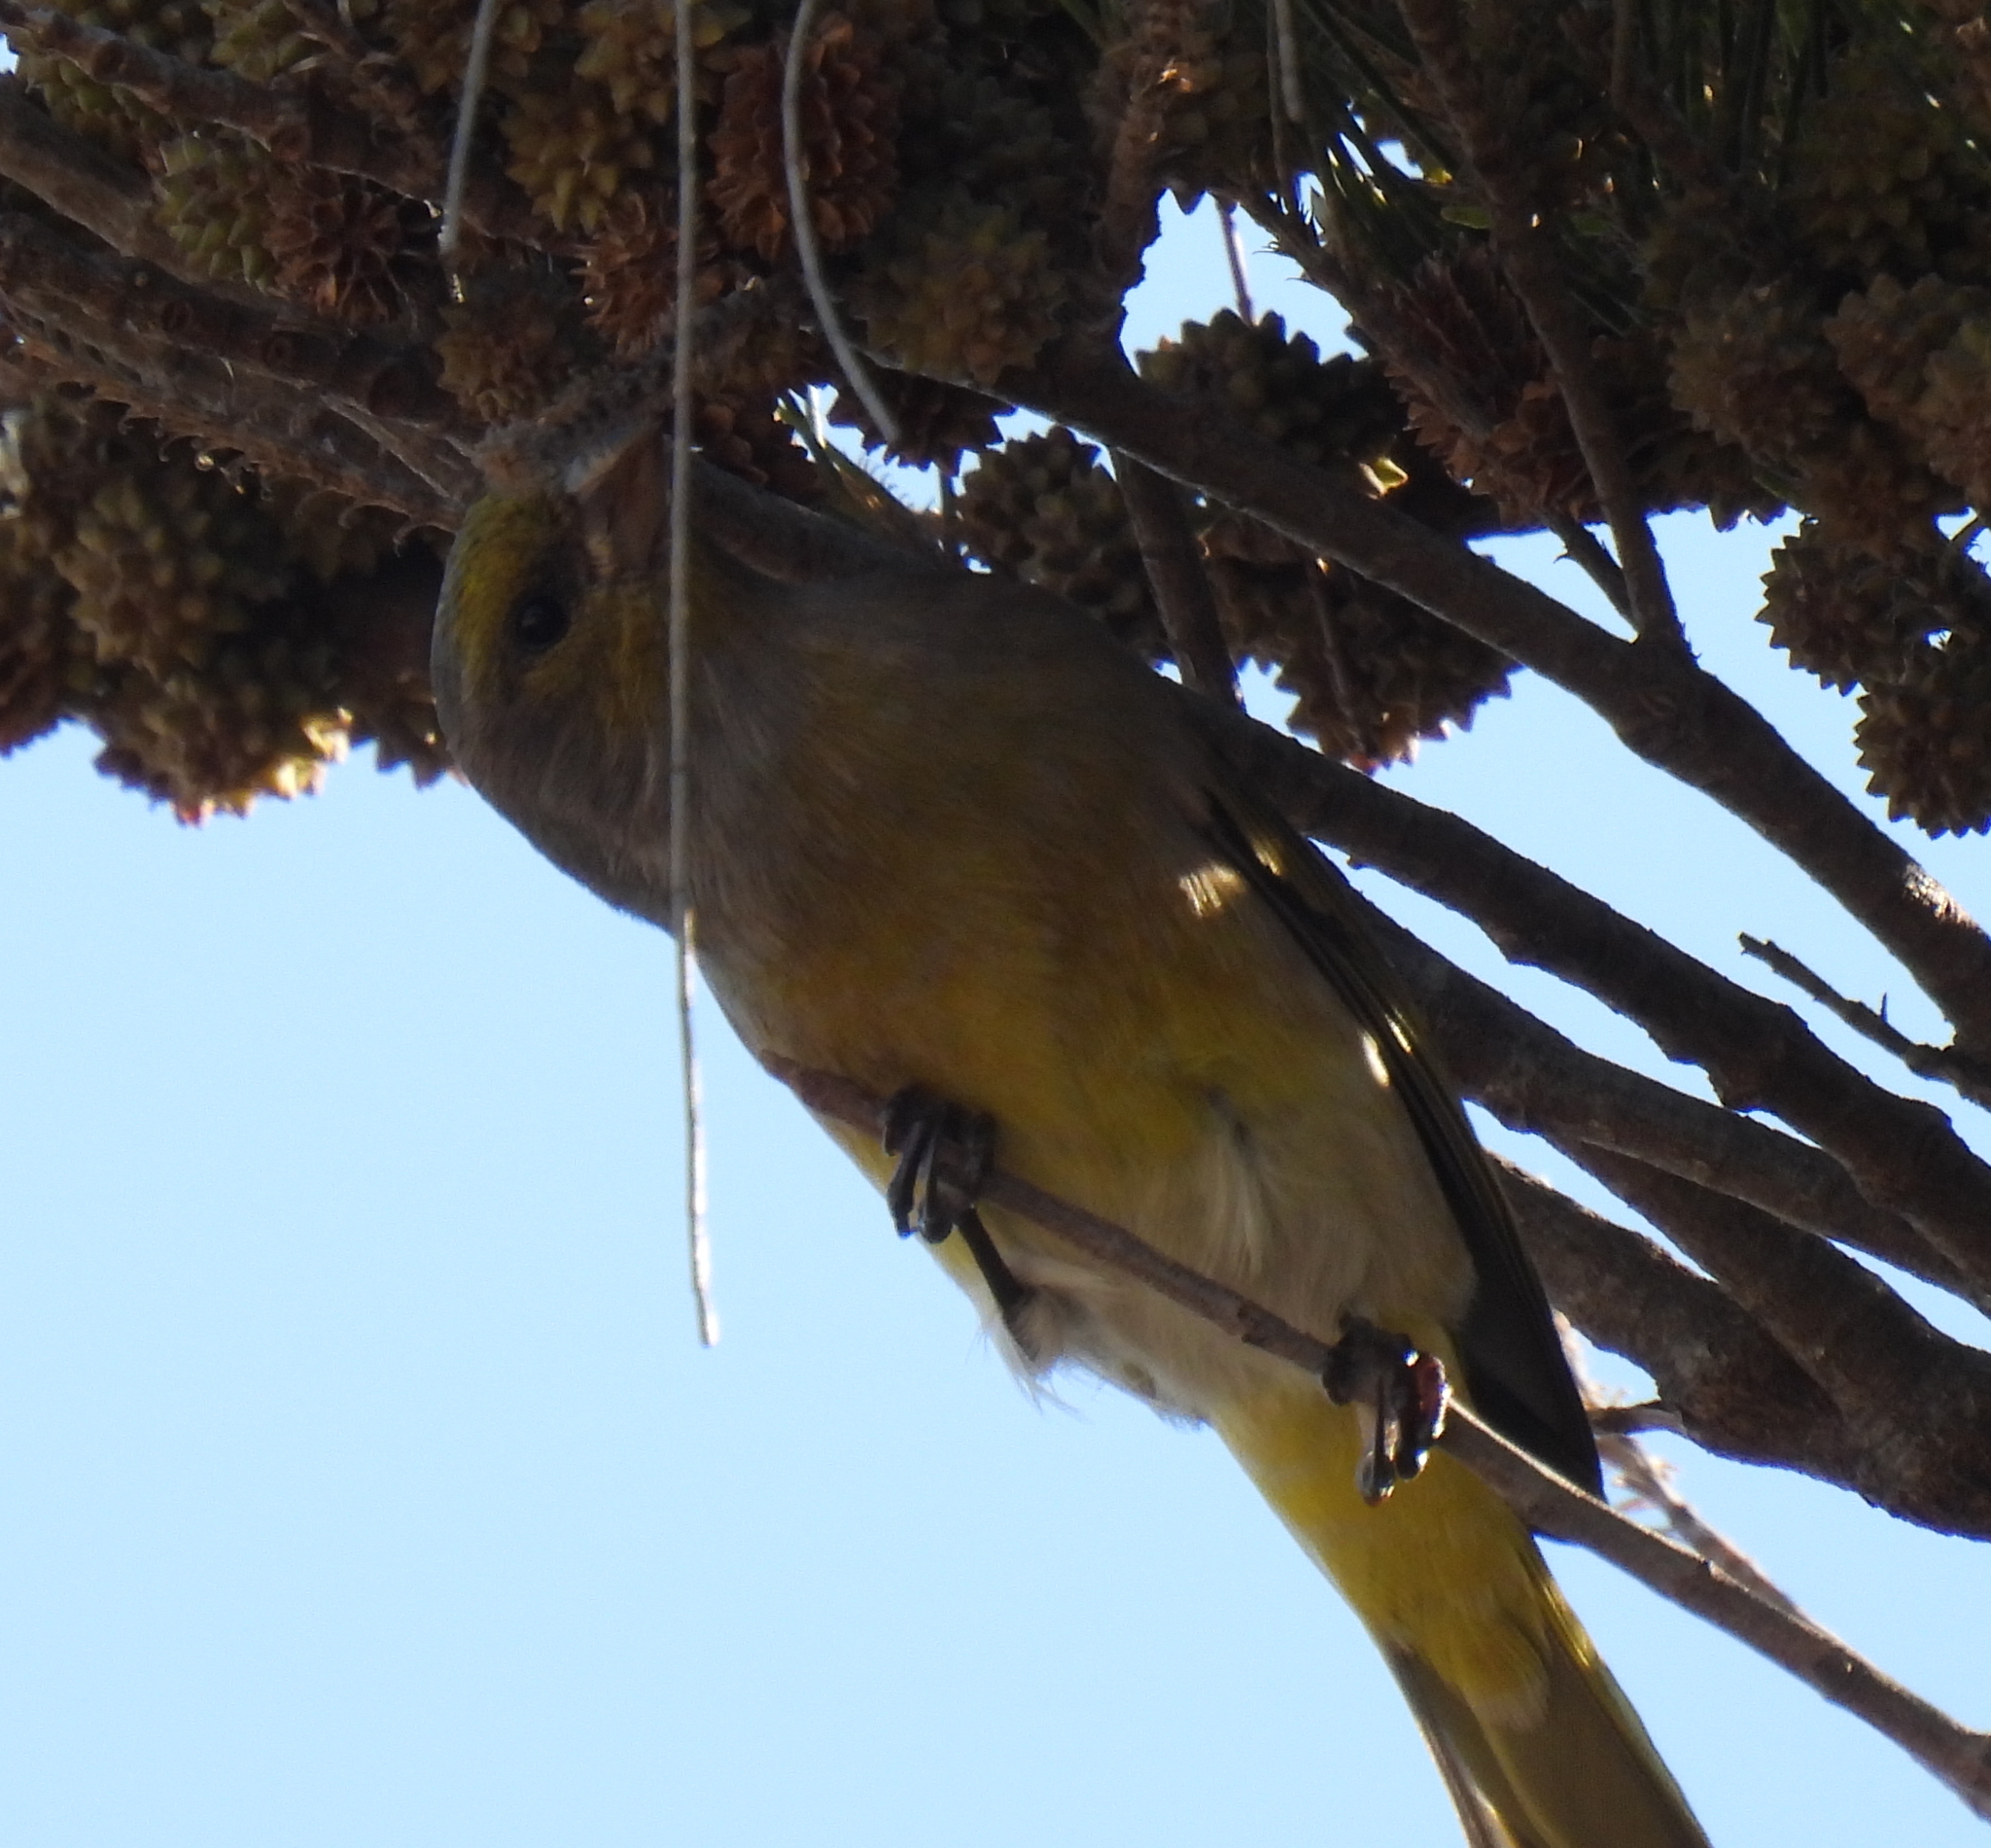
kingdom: Animalia
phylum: Chordata
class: Aves
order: Passeriformes
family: Fringillidae
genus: Serinus
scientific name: Serinus canicollis
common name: Cape canary
